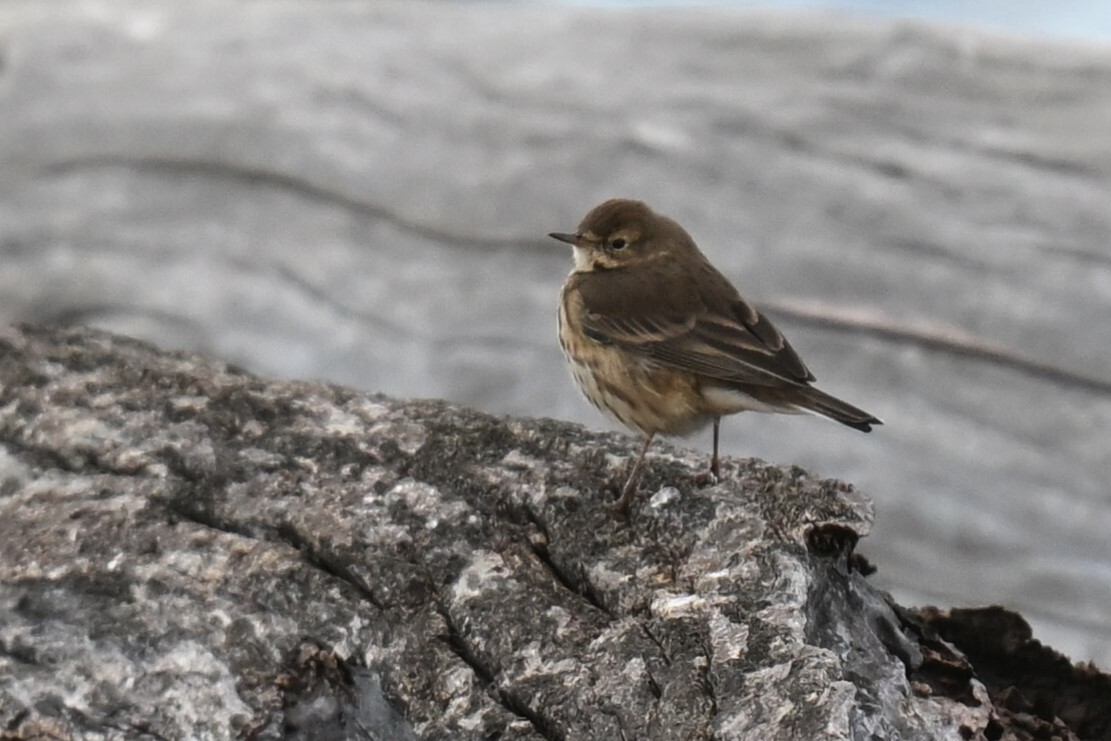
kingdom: Animalia
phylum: Chordata
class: Aves
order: Passeriformes
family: Motacillidae
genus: Anthus
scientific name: Anthus rubescens
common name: Buff-bellied pipit
